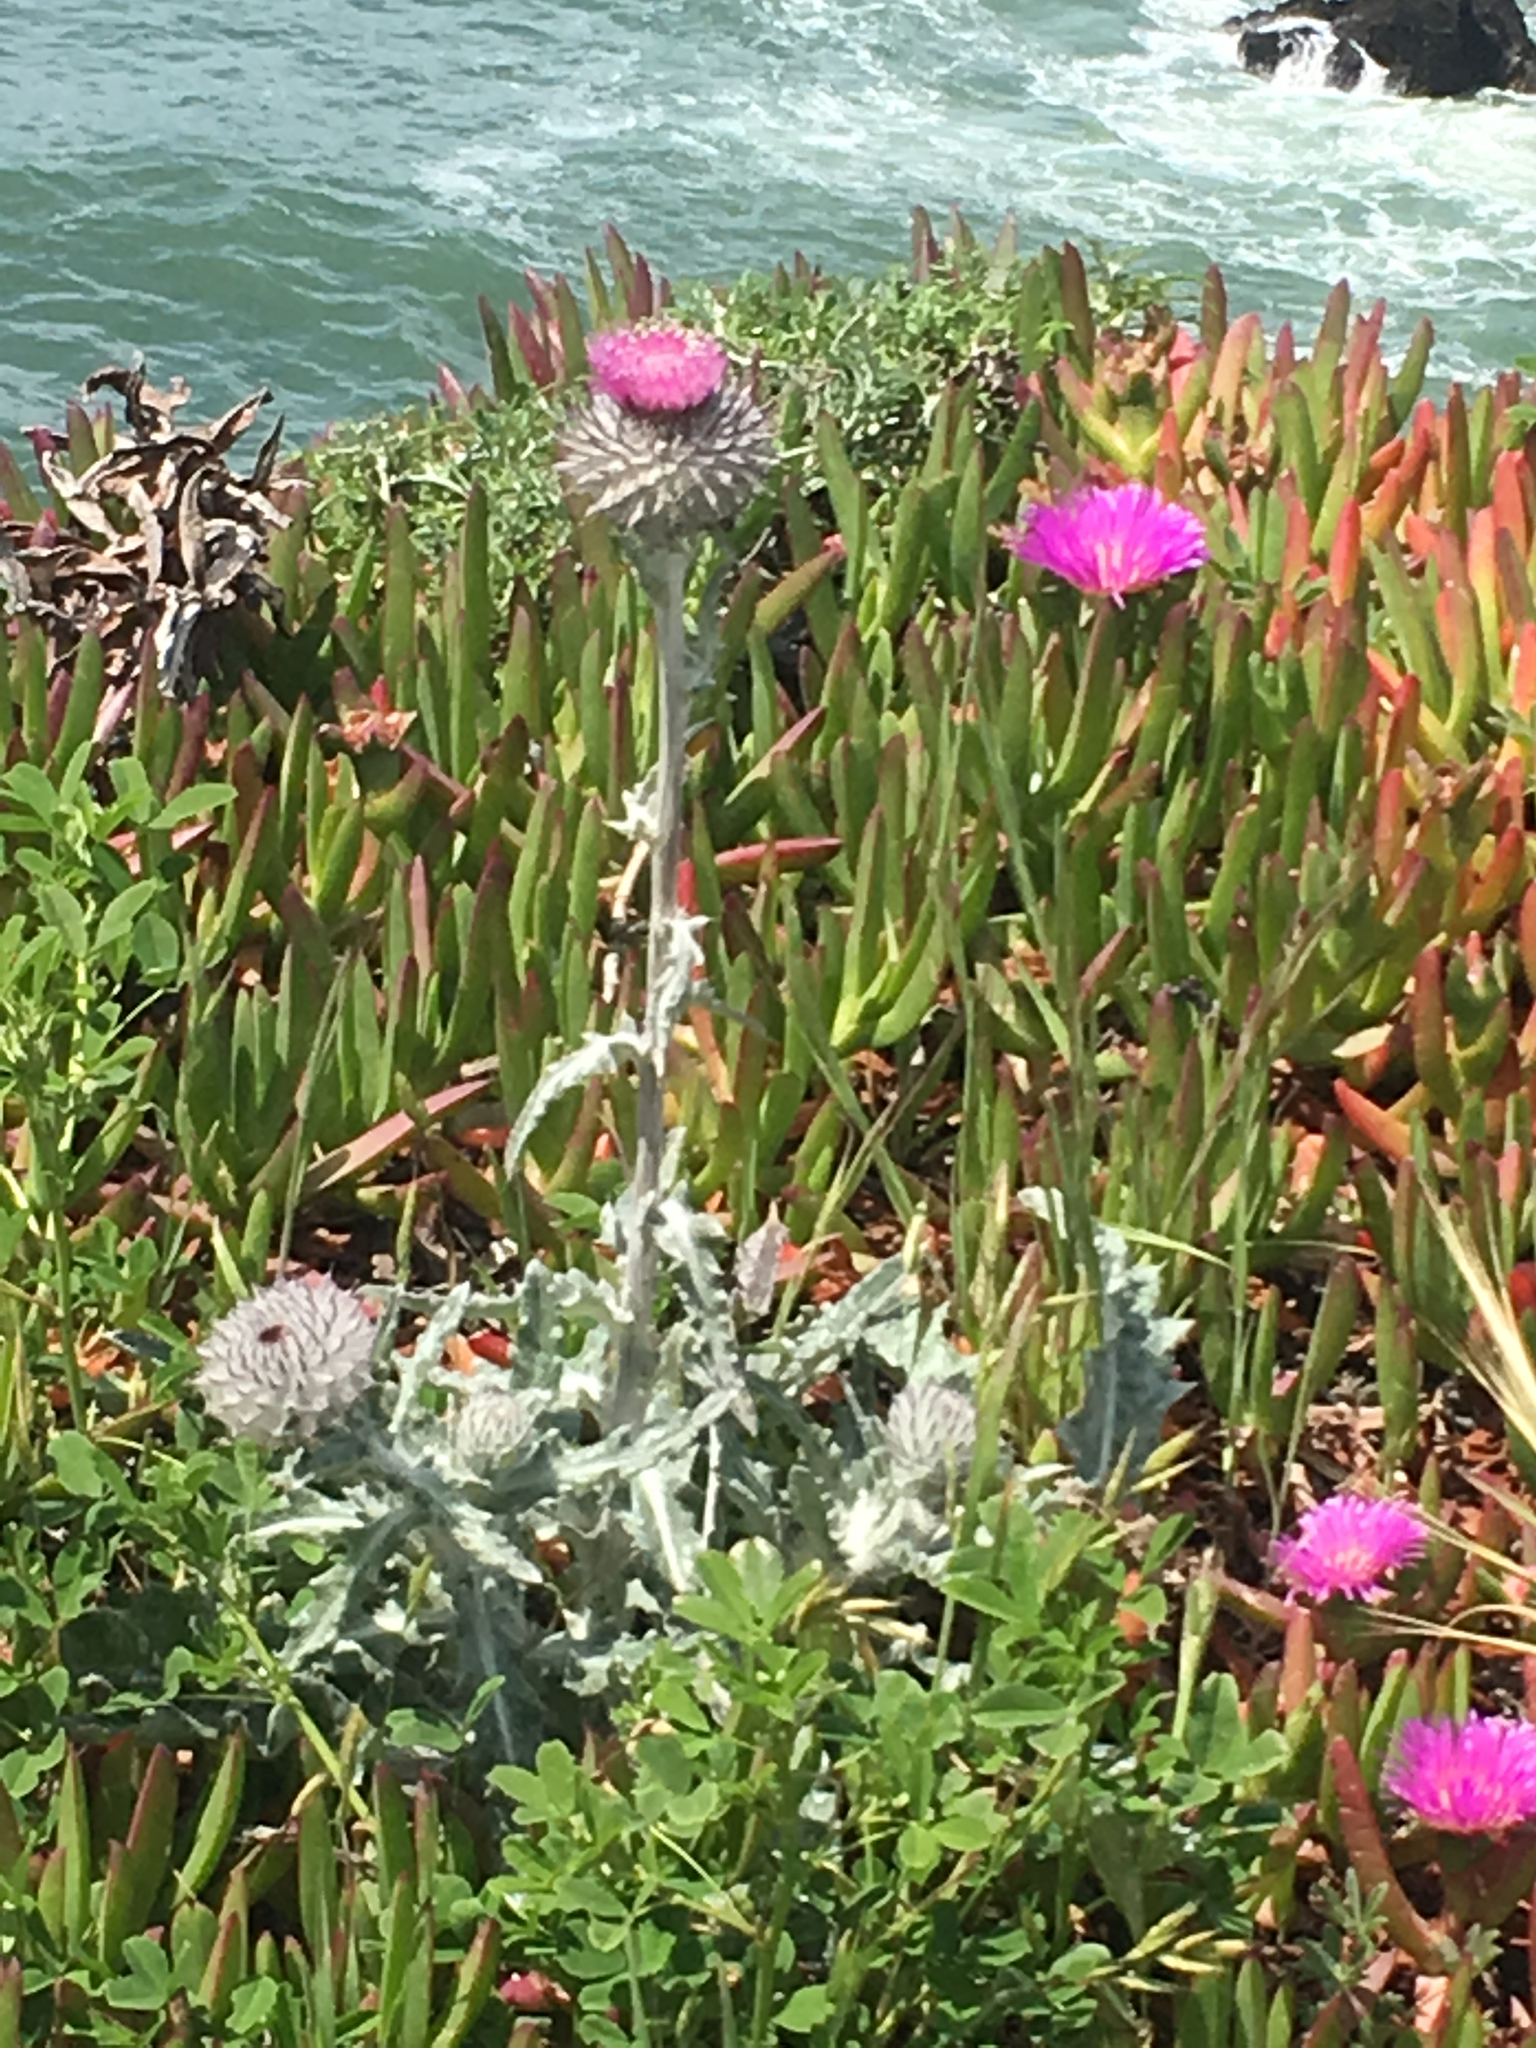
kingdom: Plantae
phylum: Tracheophyta
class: Magnoliopsida
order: Asterales
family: Asteraceae
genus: Cirsium
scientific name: Cirsium occidentale
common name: Western thistle
